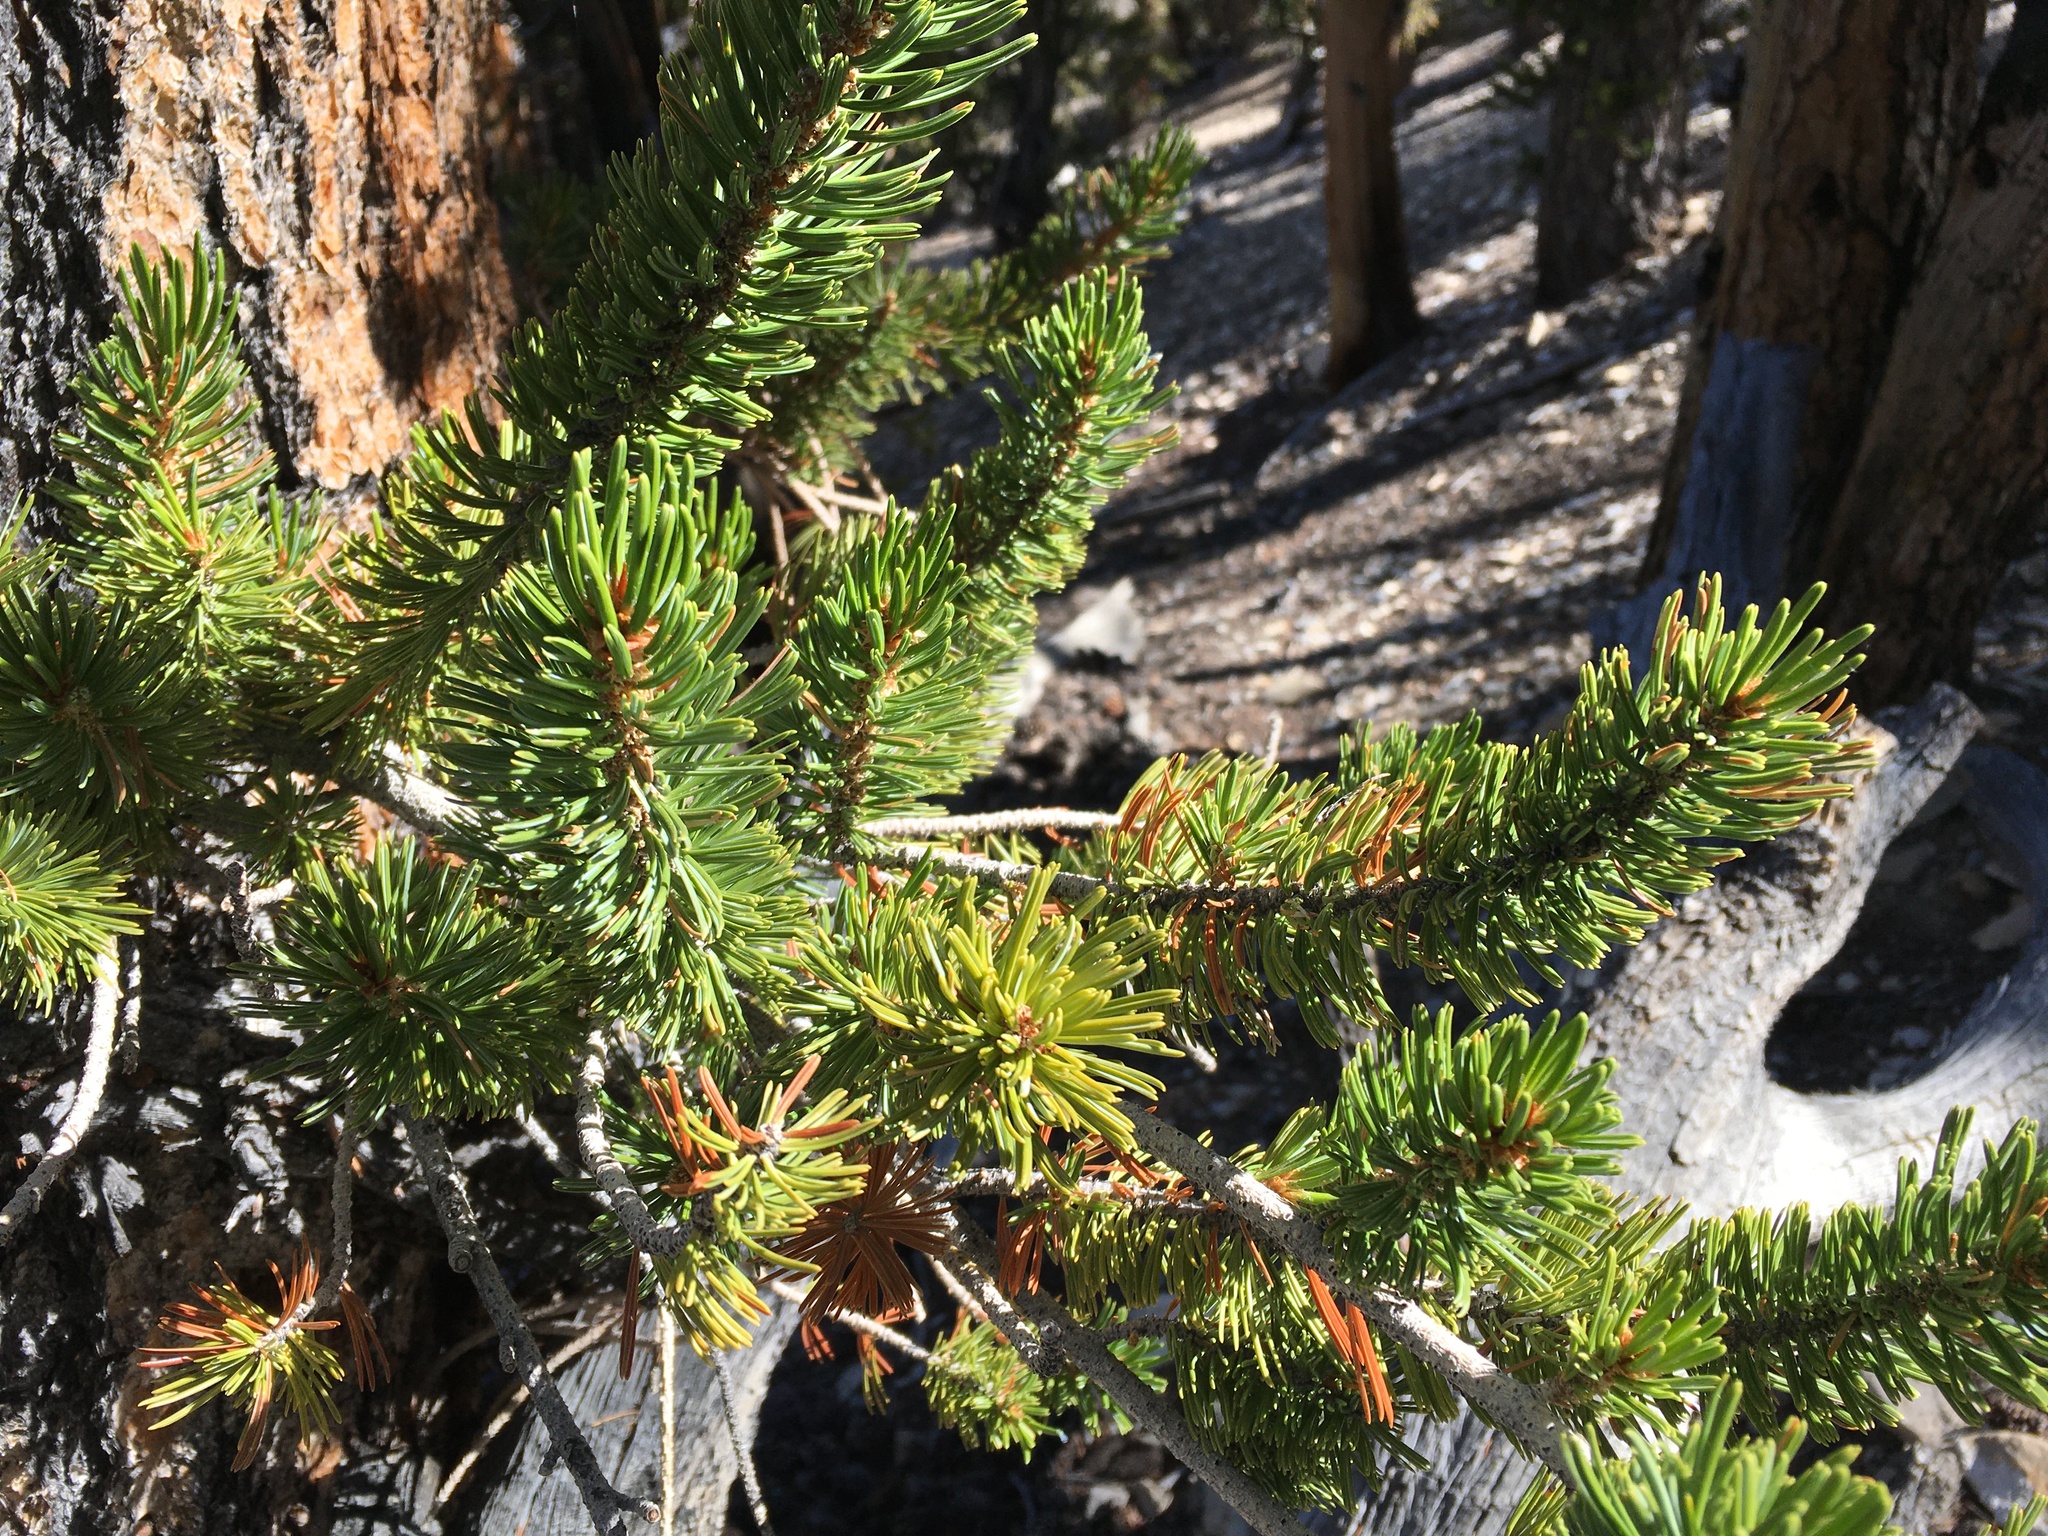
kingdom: Plantae
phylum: Tracheophyta
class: Pinopsida
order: Pinales
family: Pinaceae
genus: Pinus
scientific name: Pinus longaeva
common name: Intermountain bristlecone pine
